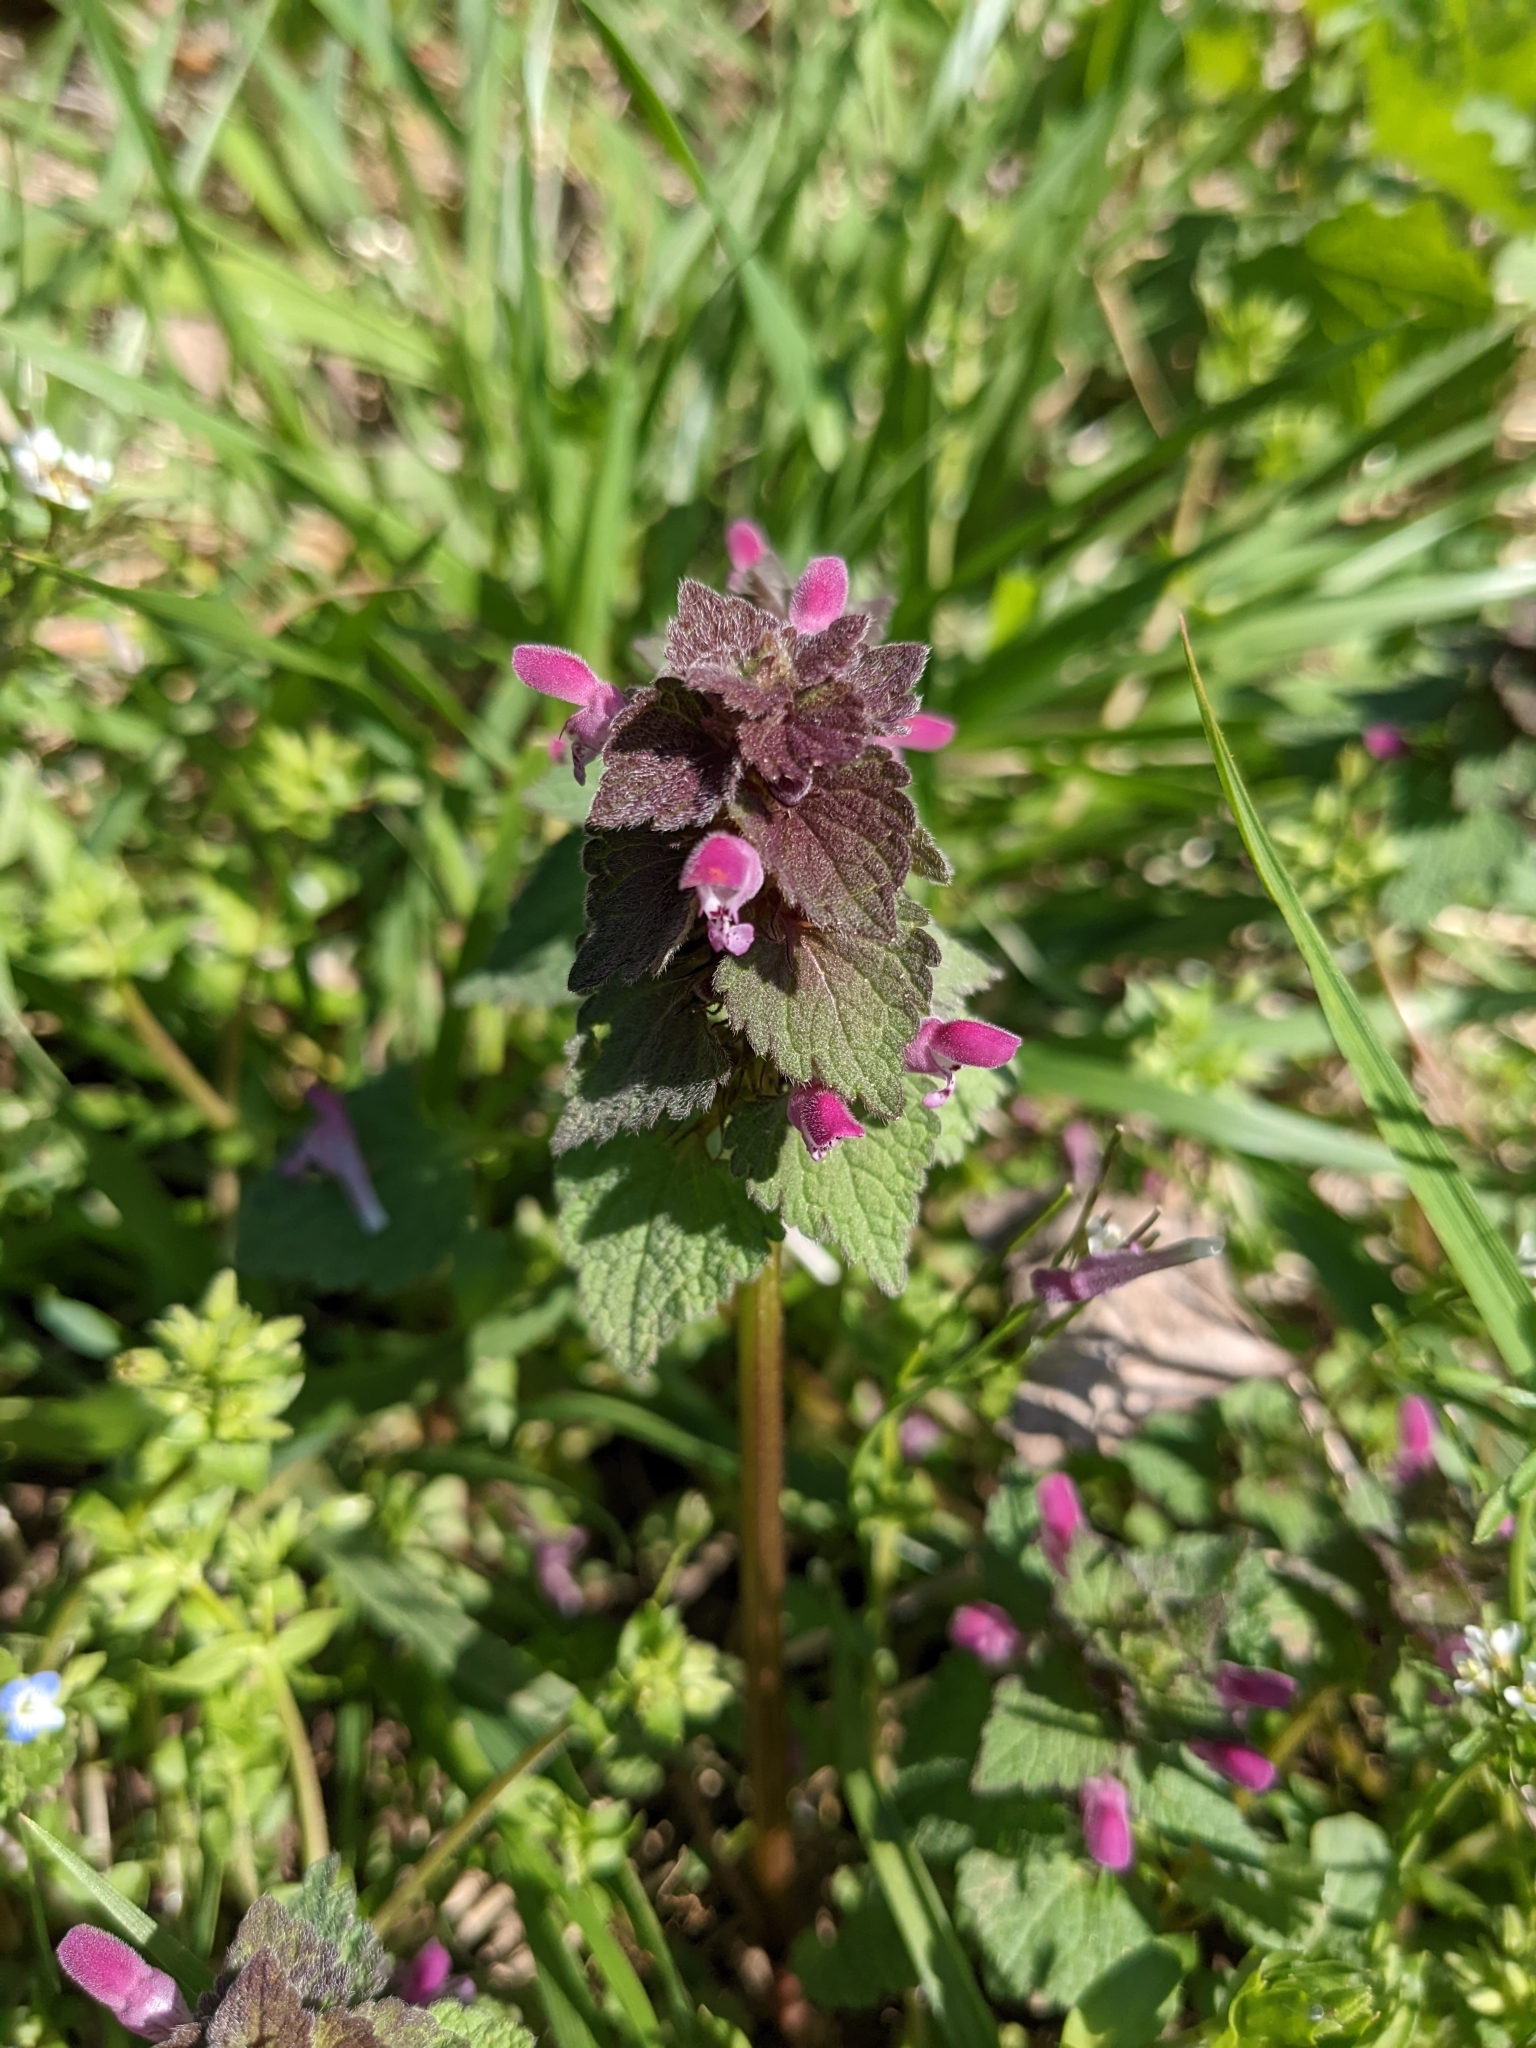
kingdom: Plantae
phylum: Tracheophyta
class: Magnoliopsida
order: Lamiales
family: Lamiaceae
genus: Lamium
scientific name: Lamium purpureum
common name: Red dead-nettle
